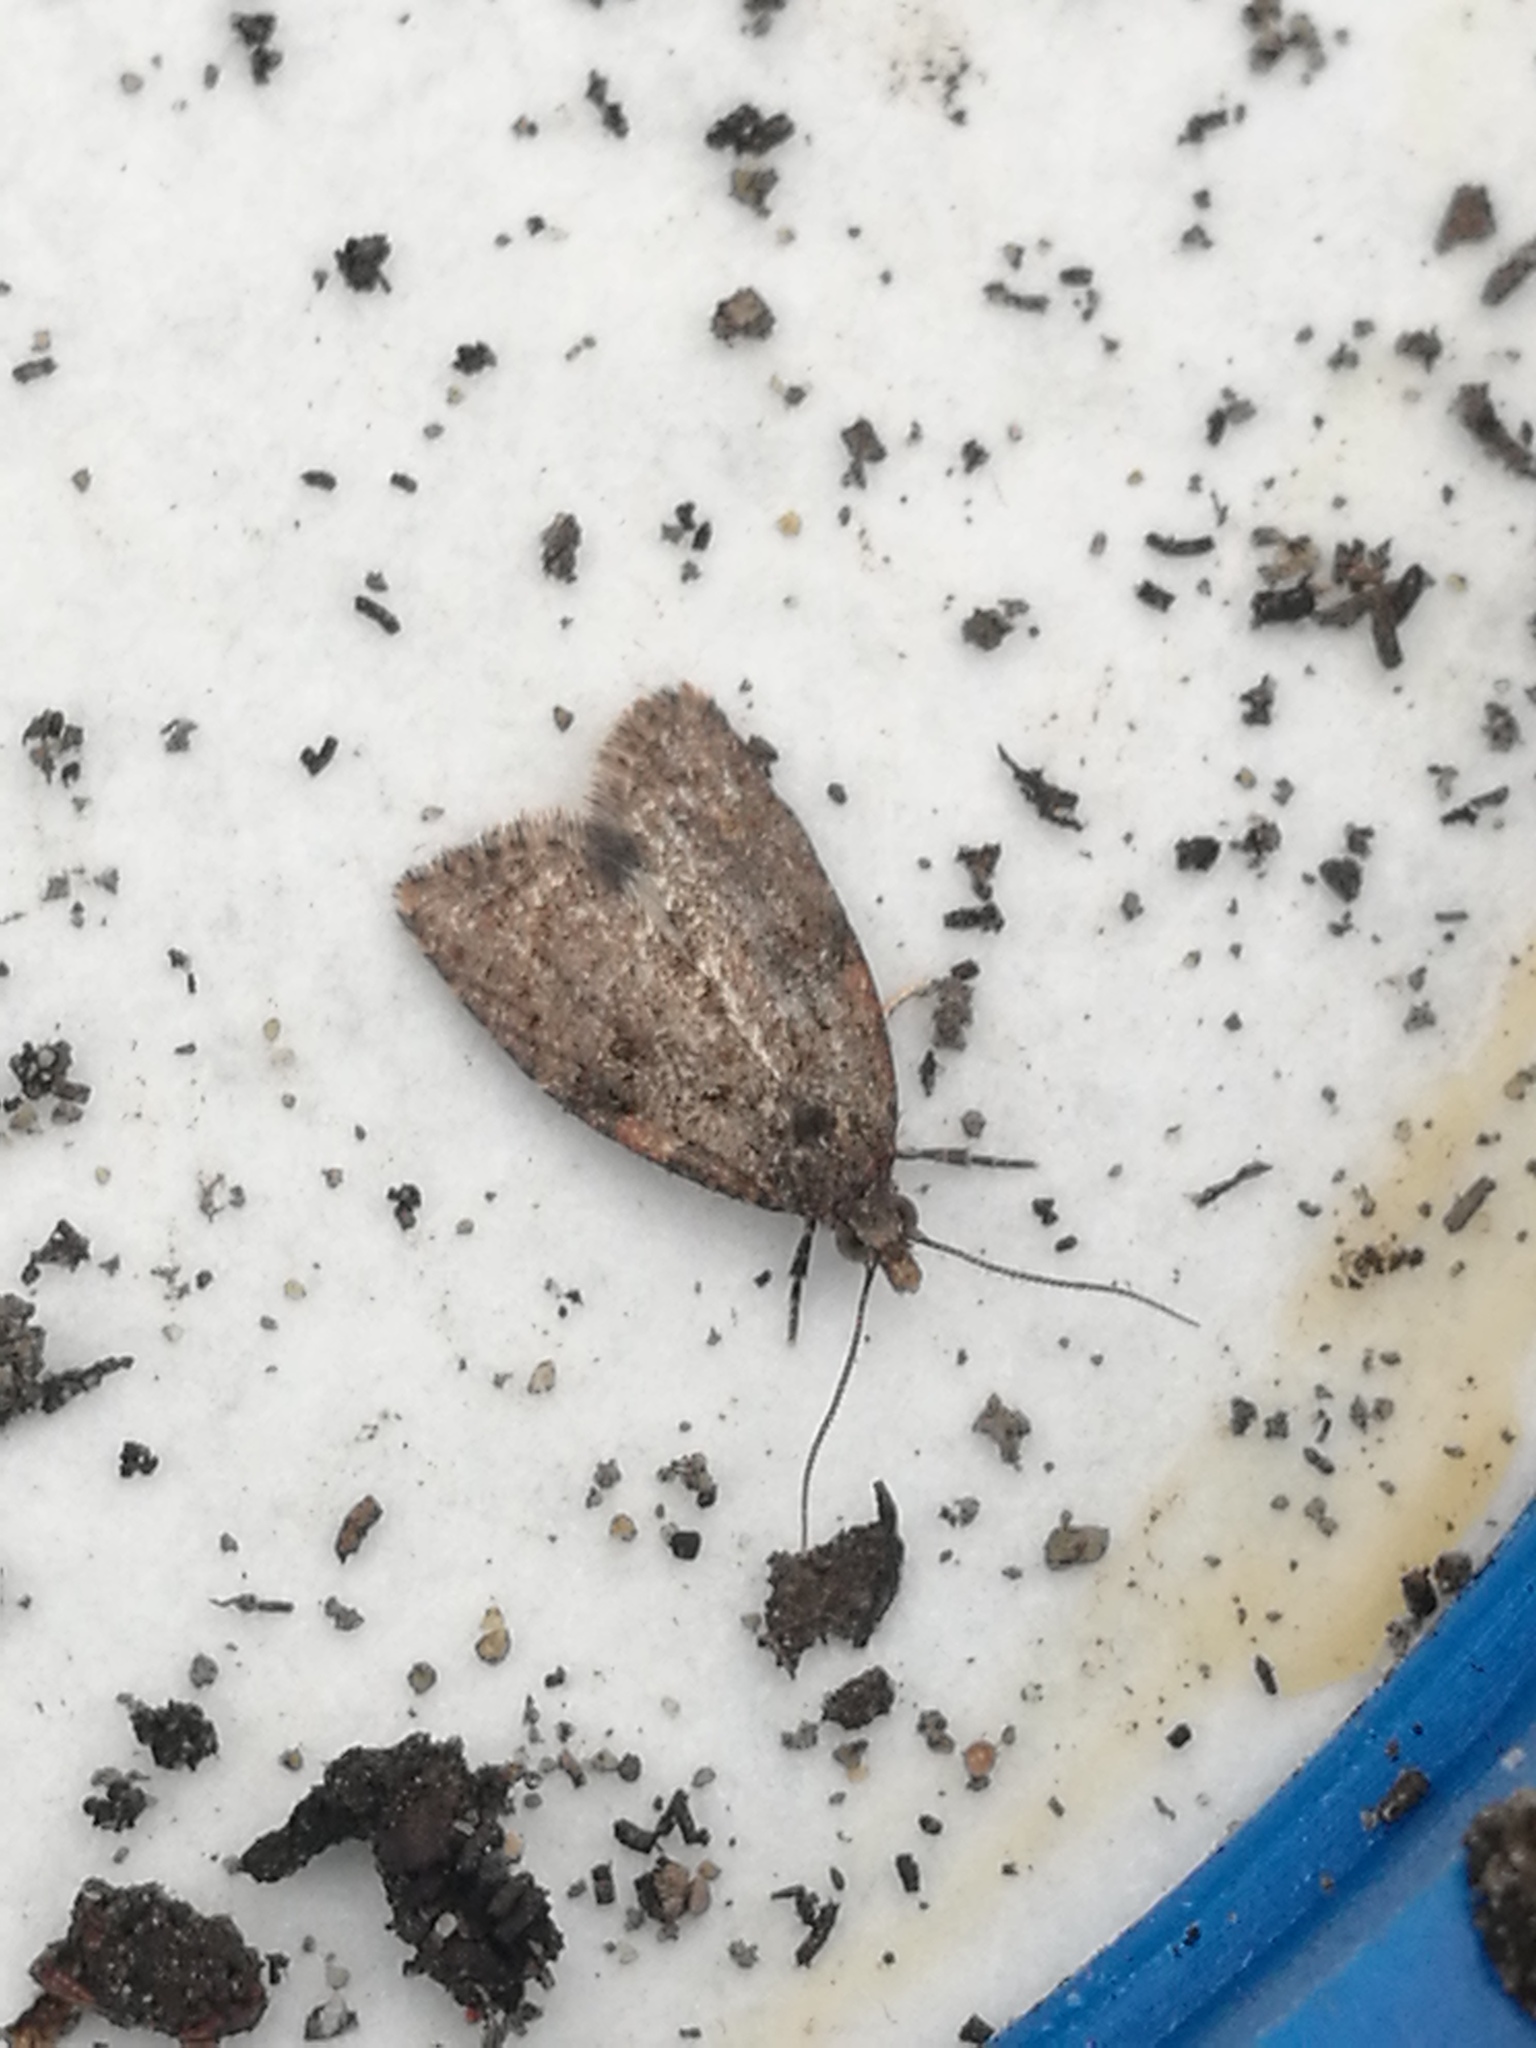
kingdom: Animalia
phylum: Arthropoda
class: Insecta
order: Lepidoptera
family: Tortricidae
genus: Capua
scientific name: Capua intractana
